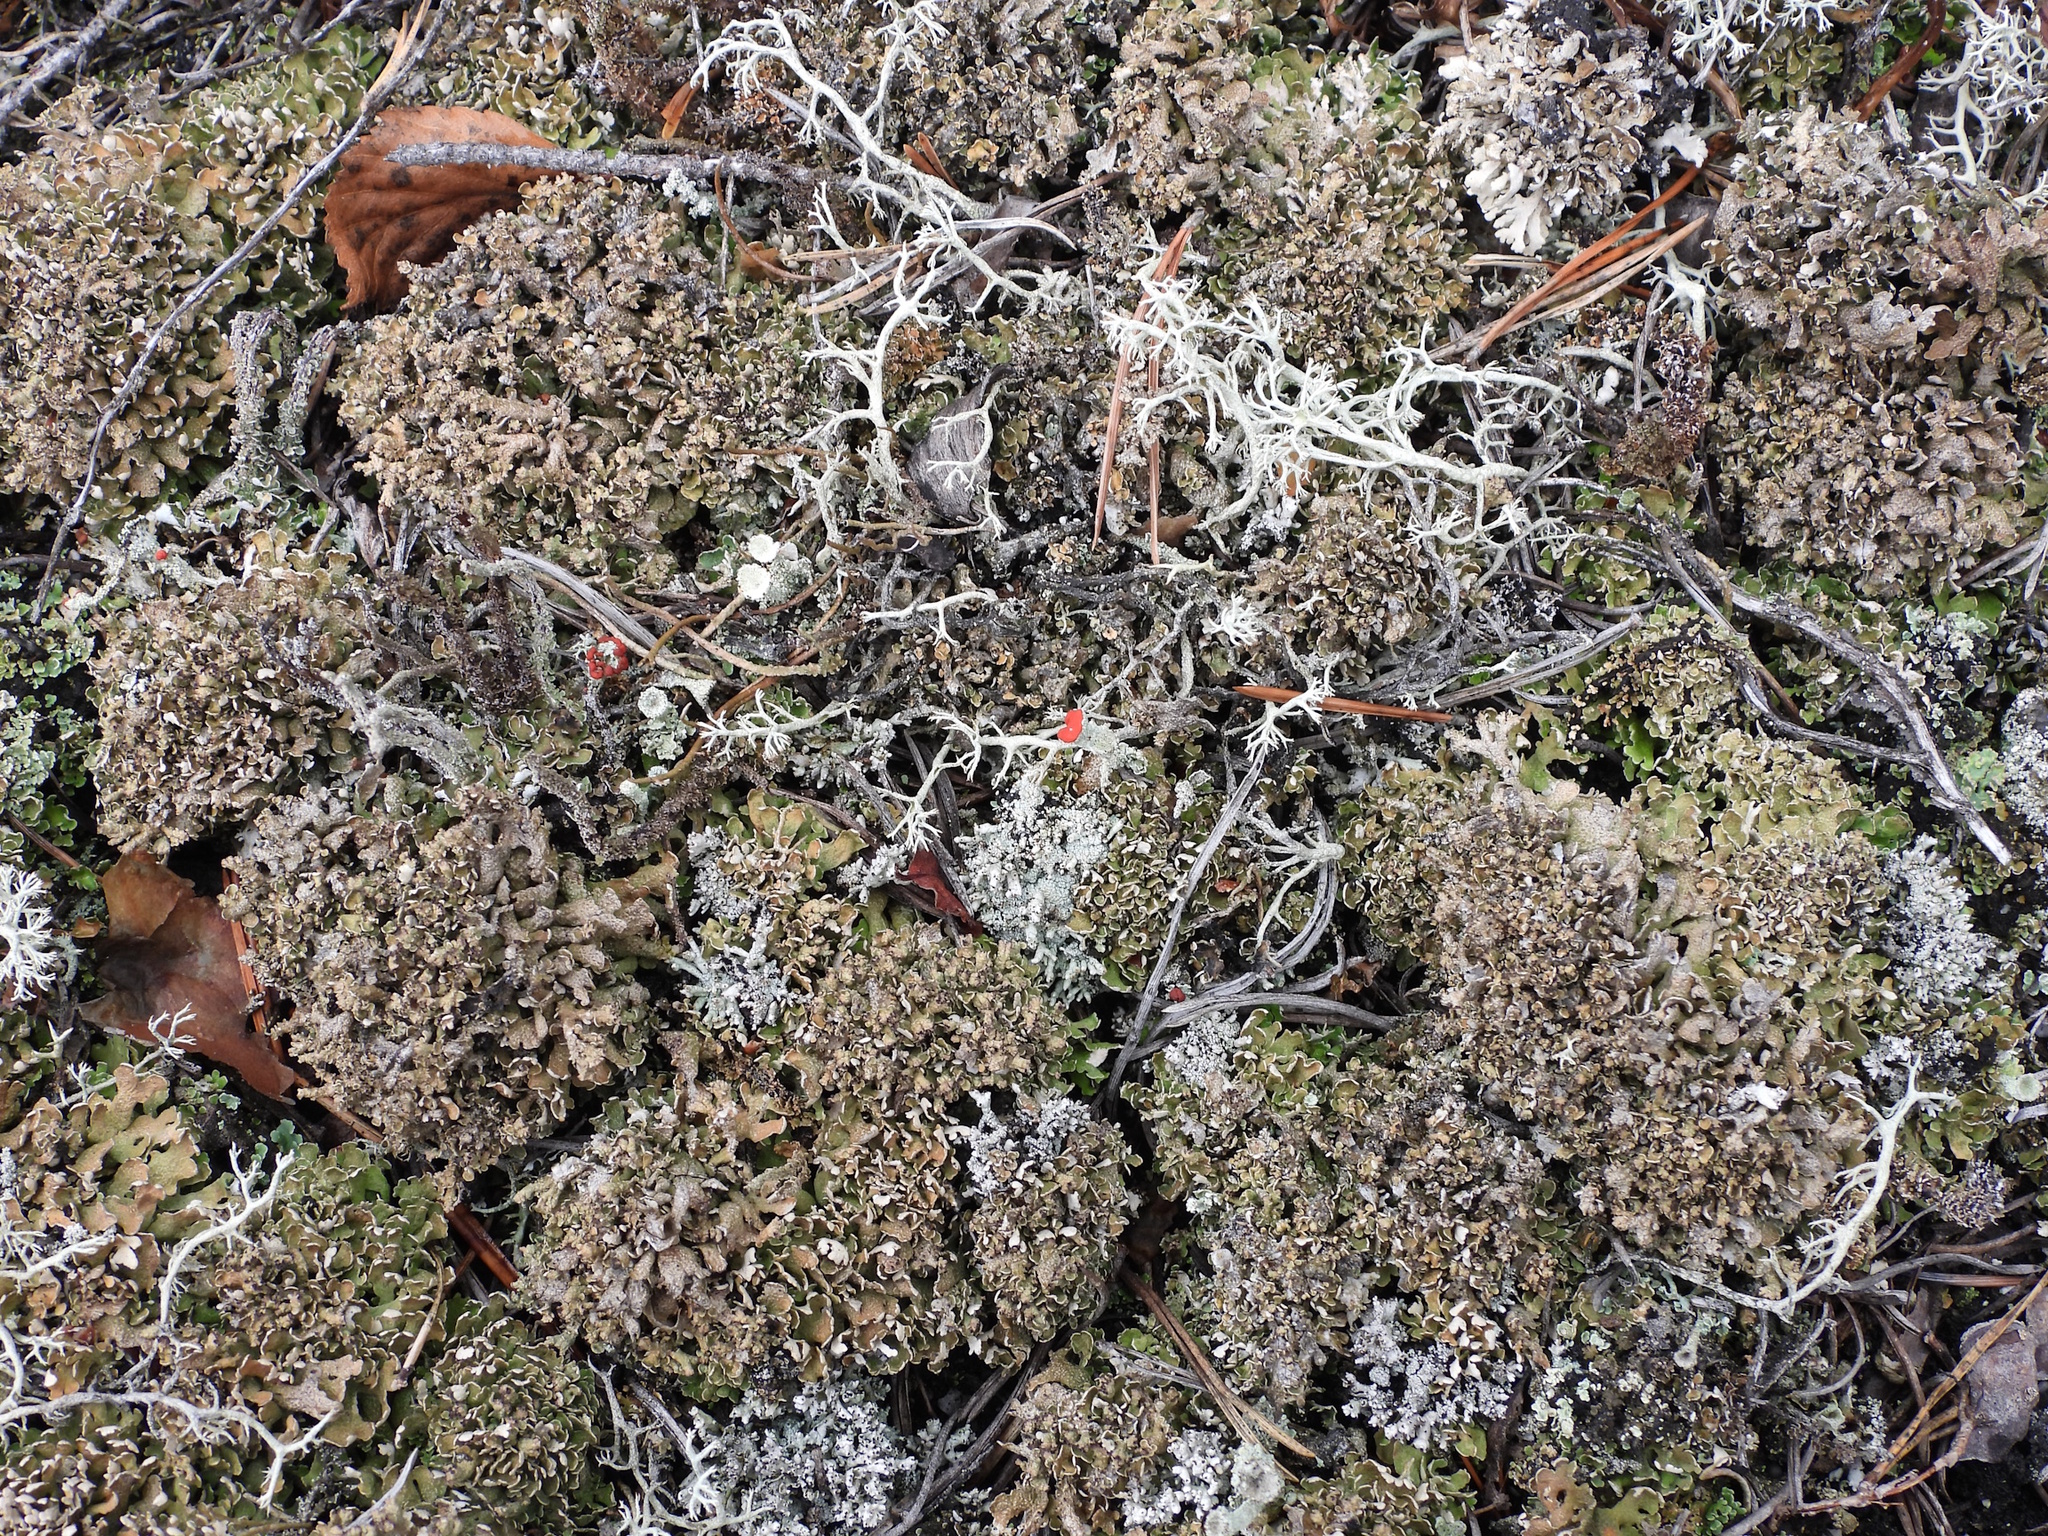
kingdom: Fungi
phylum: Ascomycota
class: Lecanoromycetes
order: Lecanorales
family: Cladoniaceae
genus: Cladonia
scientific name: Cladonia strepsilis
